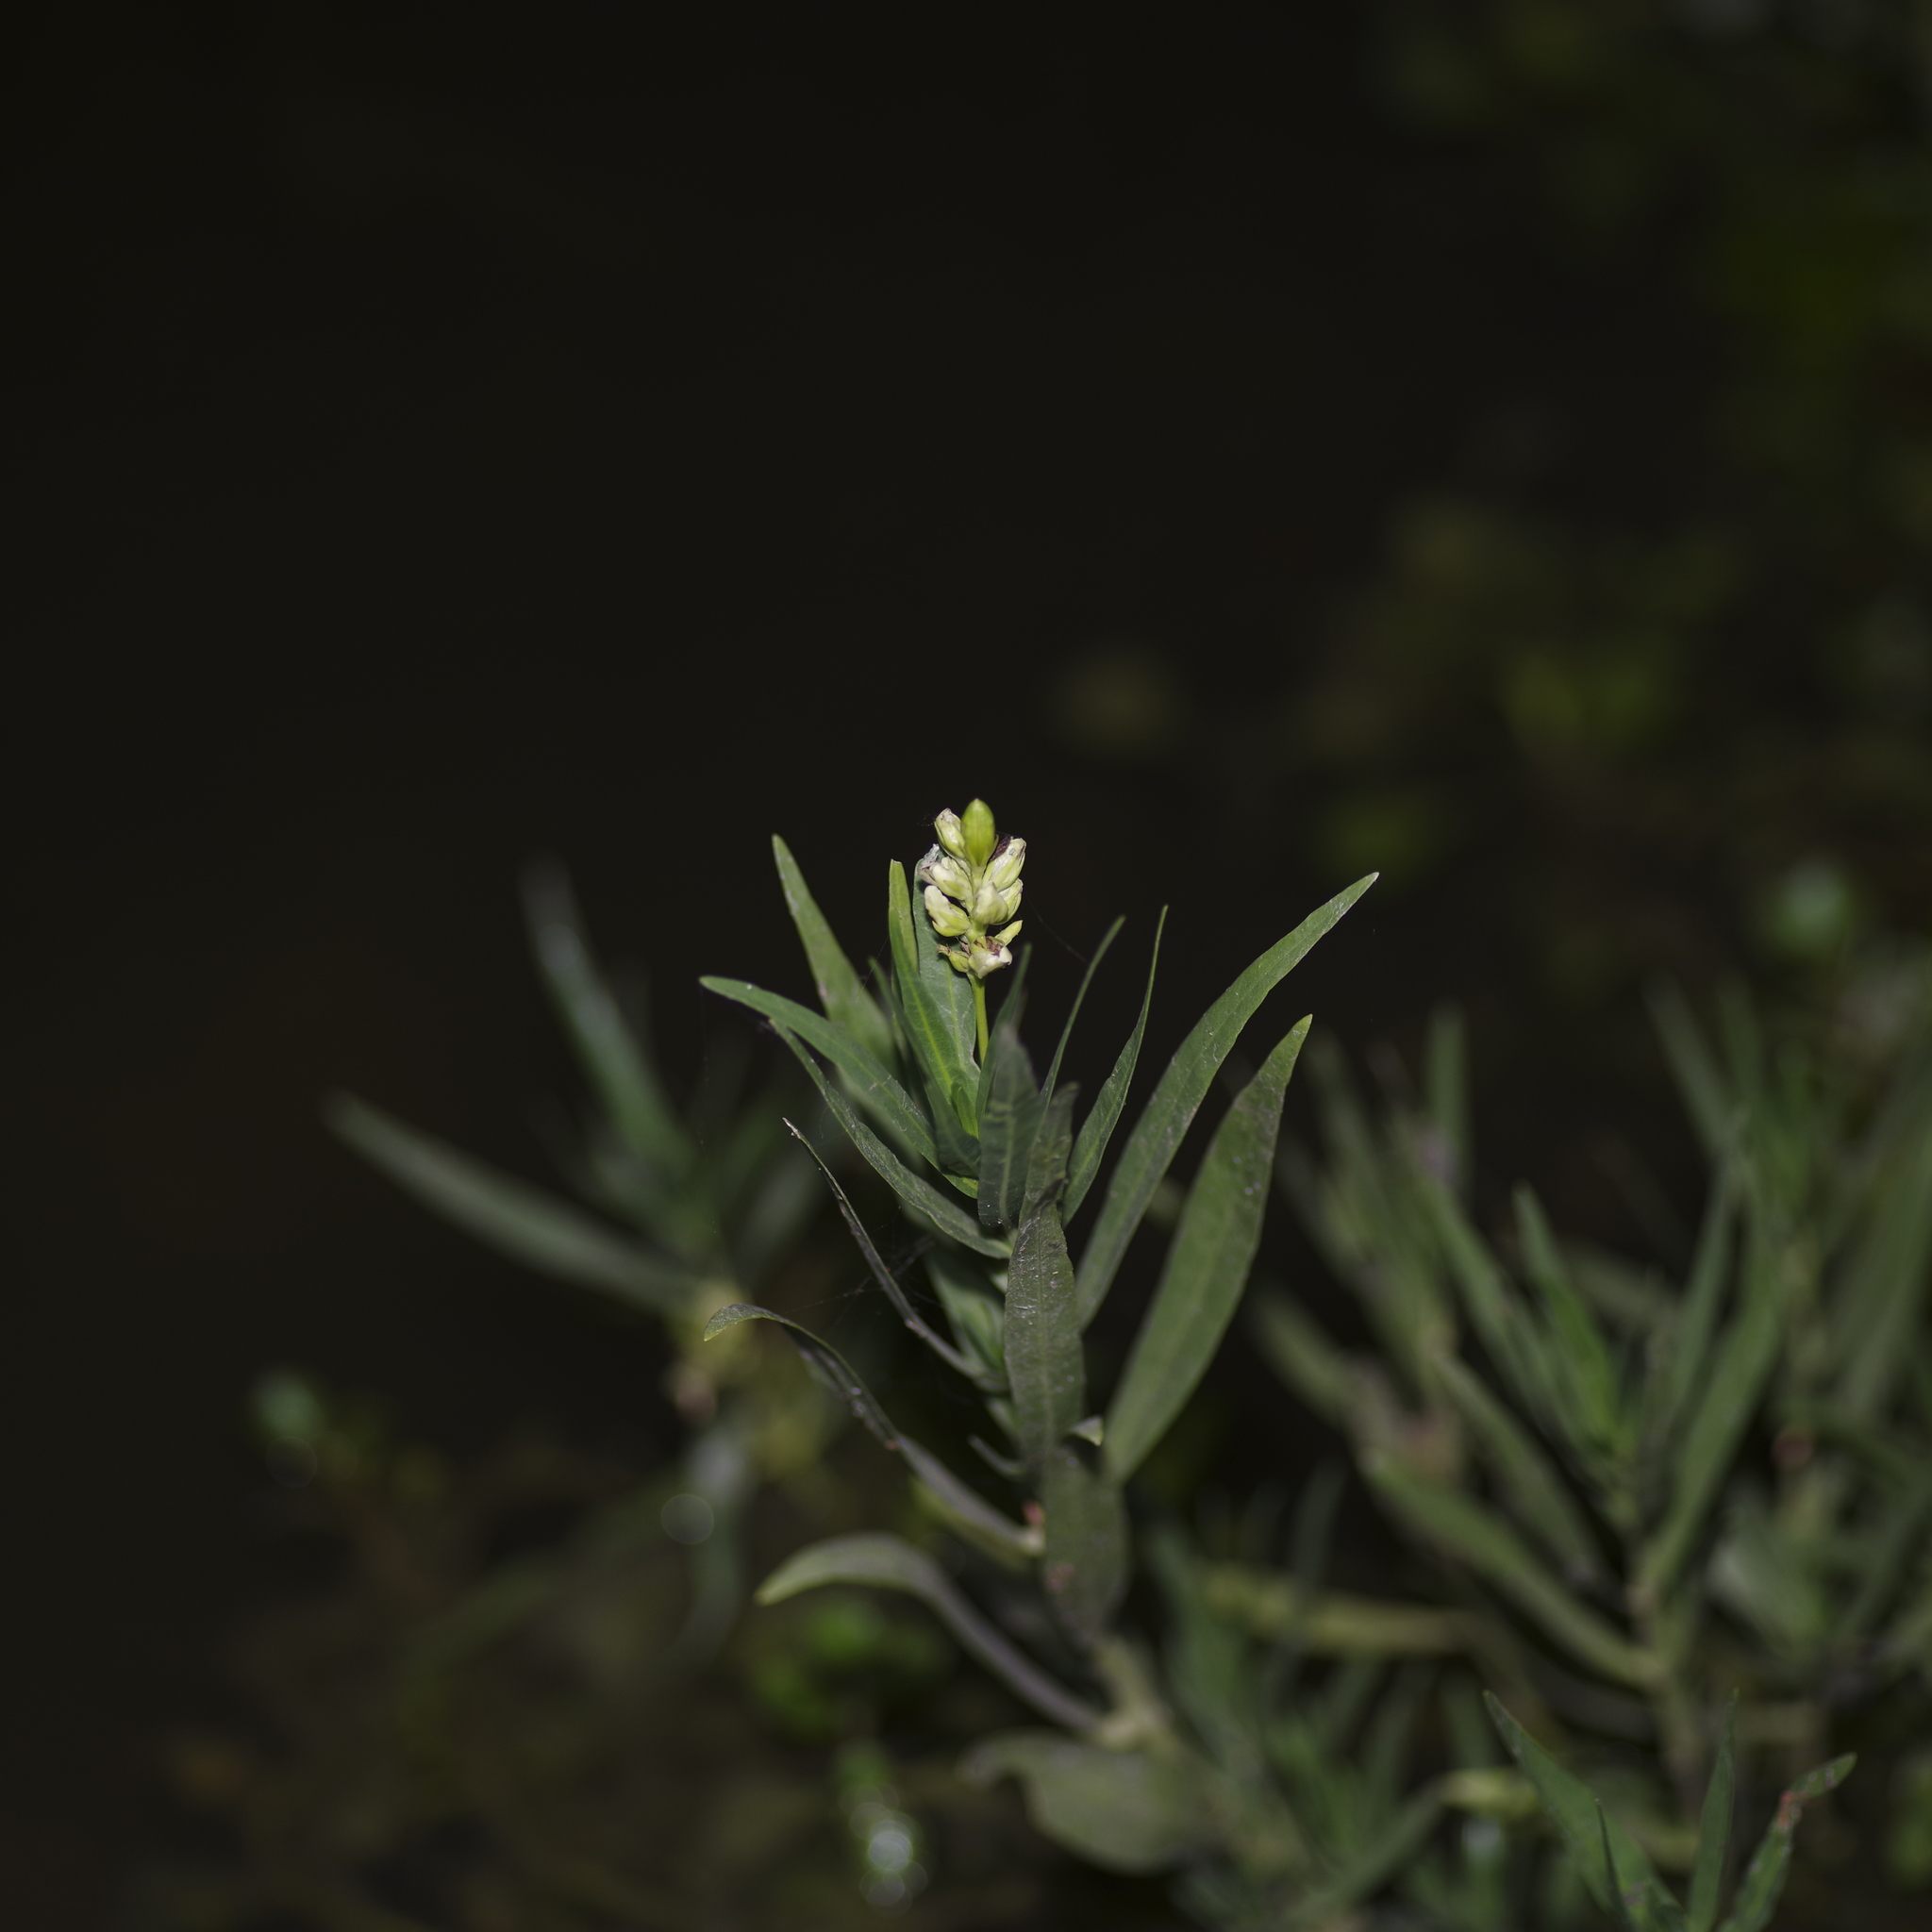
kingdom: Plantae
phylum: Tracheophyta
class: Magnoliopsida
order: Lamiales
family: Acanthaceae
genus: Dianthera
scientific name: Dianthera americana
